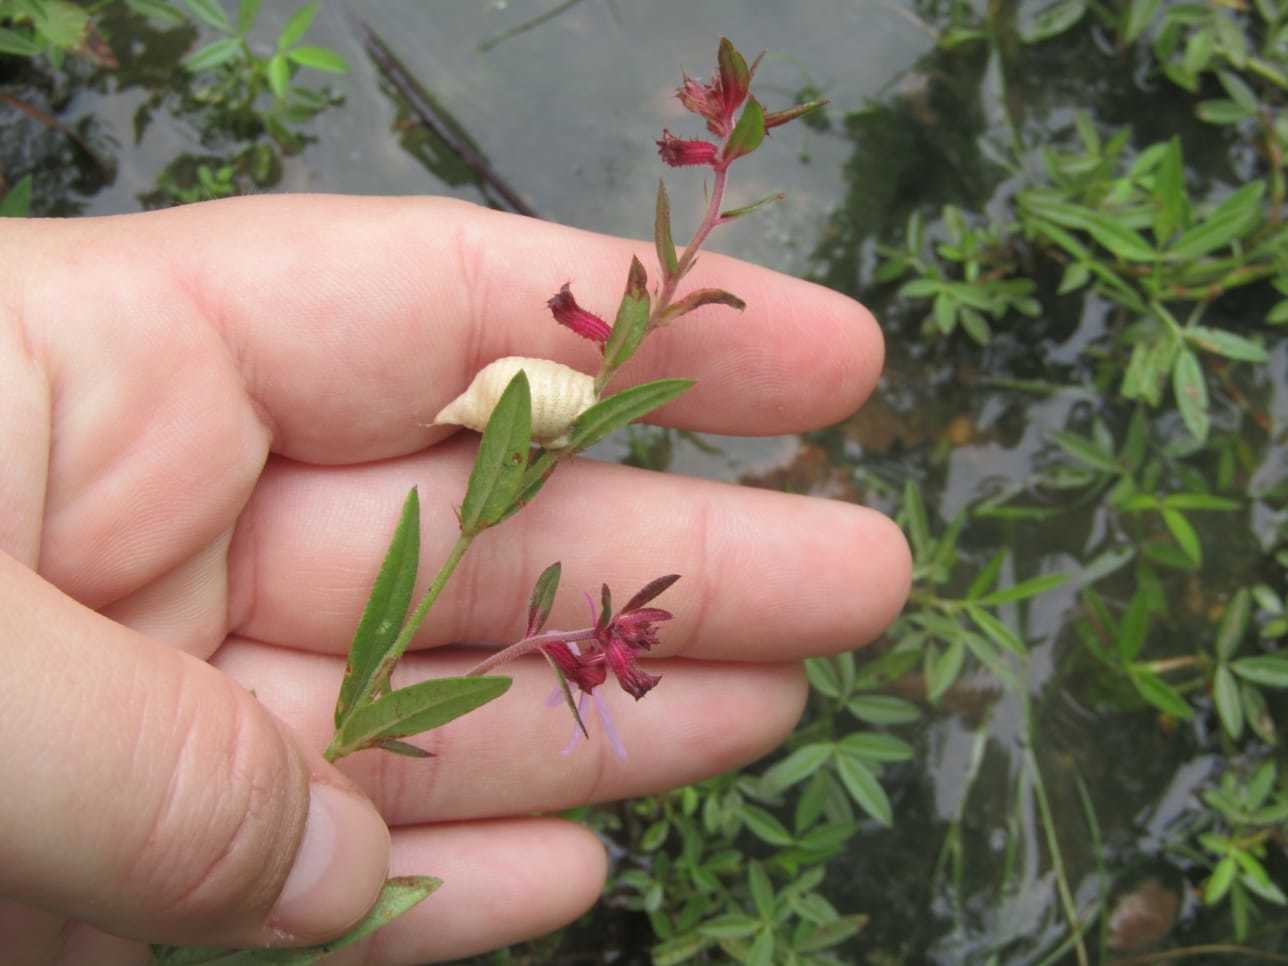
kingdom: Plantae
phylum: Tracheophyta
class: Magnoliopsida
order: Myrtales
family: Lythraceae
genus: Cuphea
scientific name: Cuphea campestris
